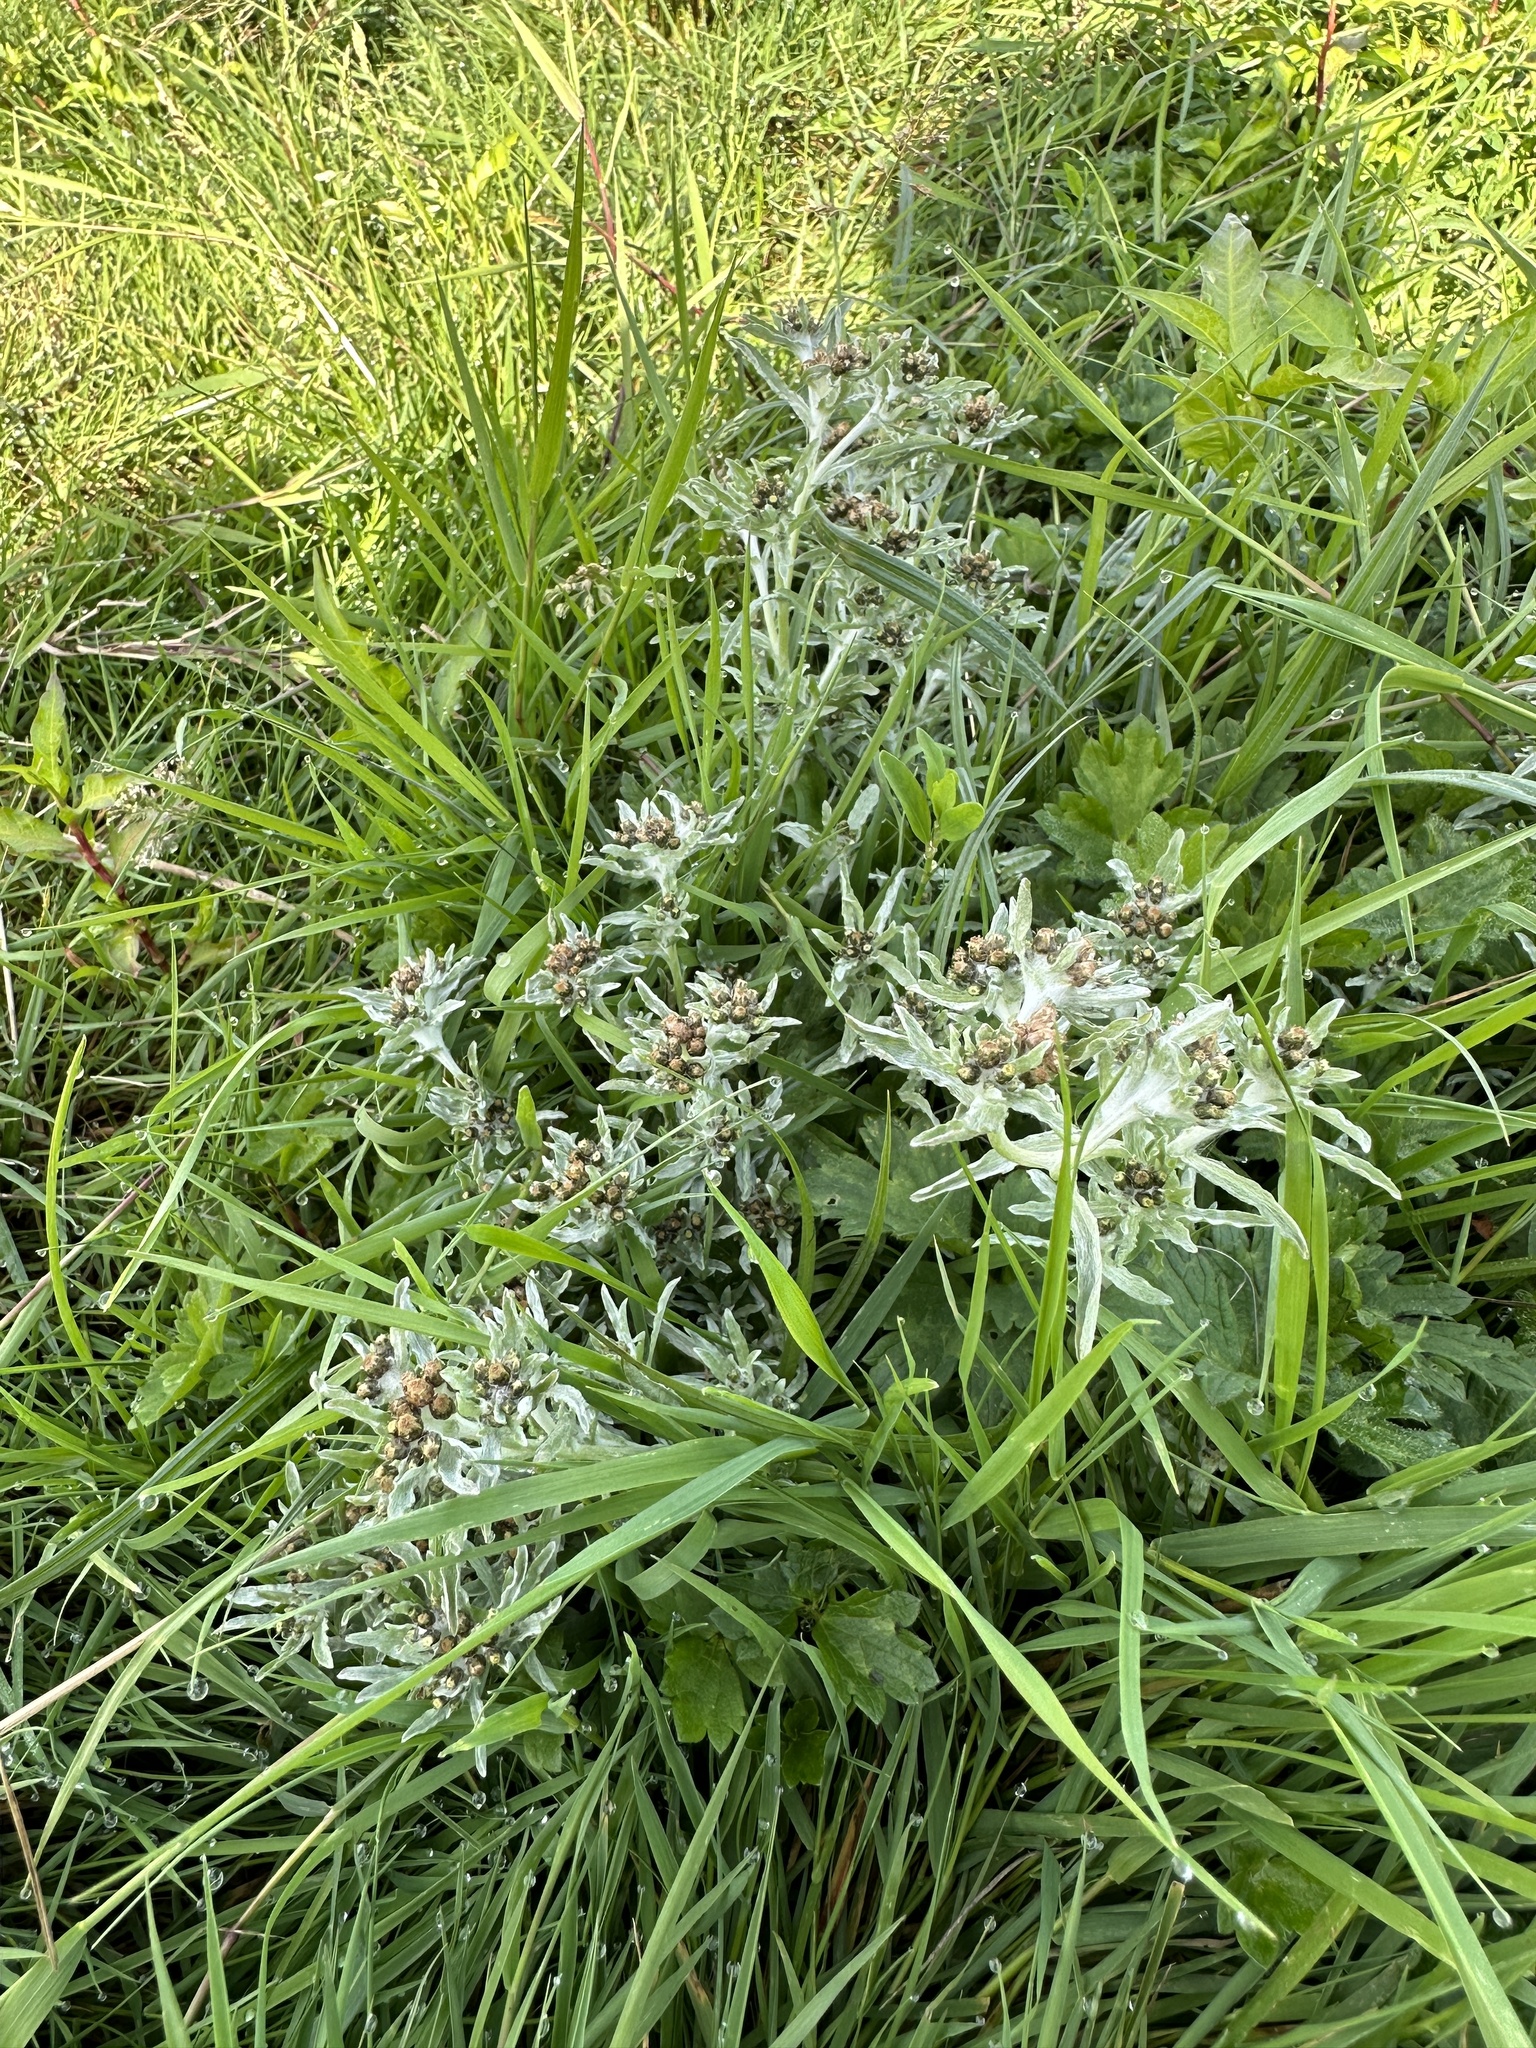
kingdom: Plantae
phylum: Tracheophyta
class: Magnoliopsida
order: Asterales
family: Asteraceae
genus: Gnaphalium
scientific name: Gnaphalium uliginosum
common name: Marsh cudweed
